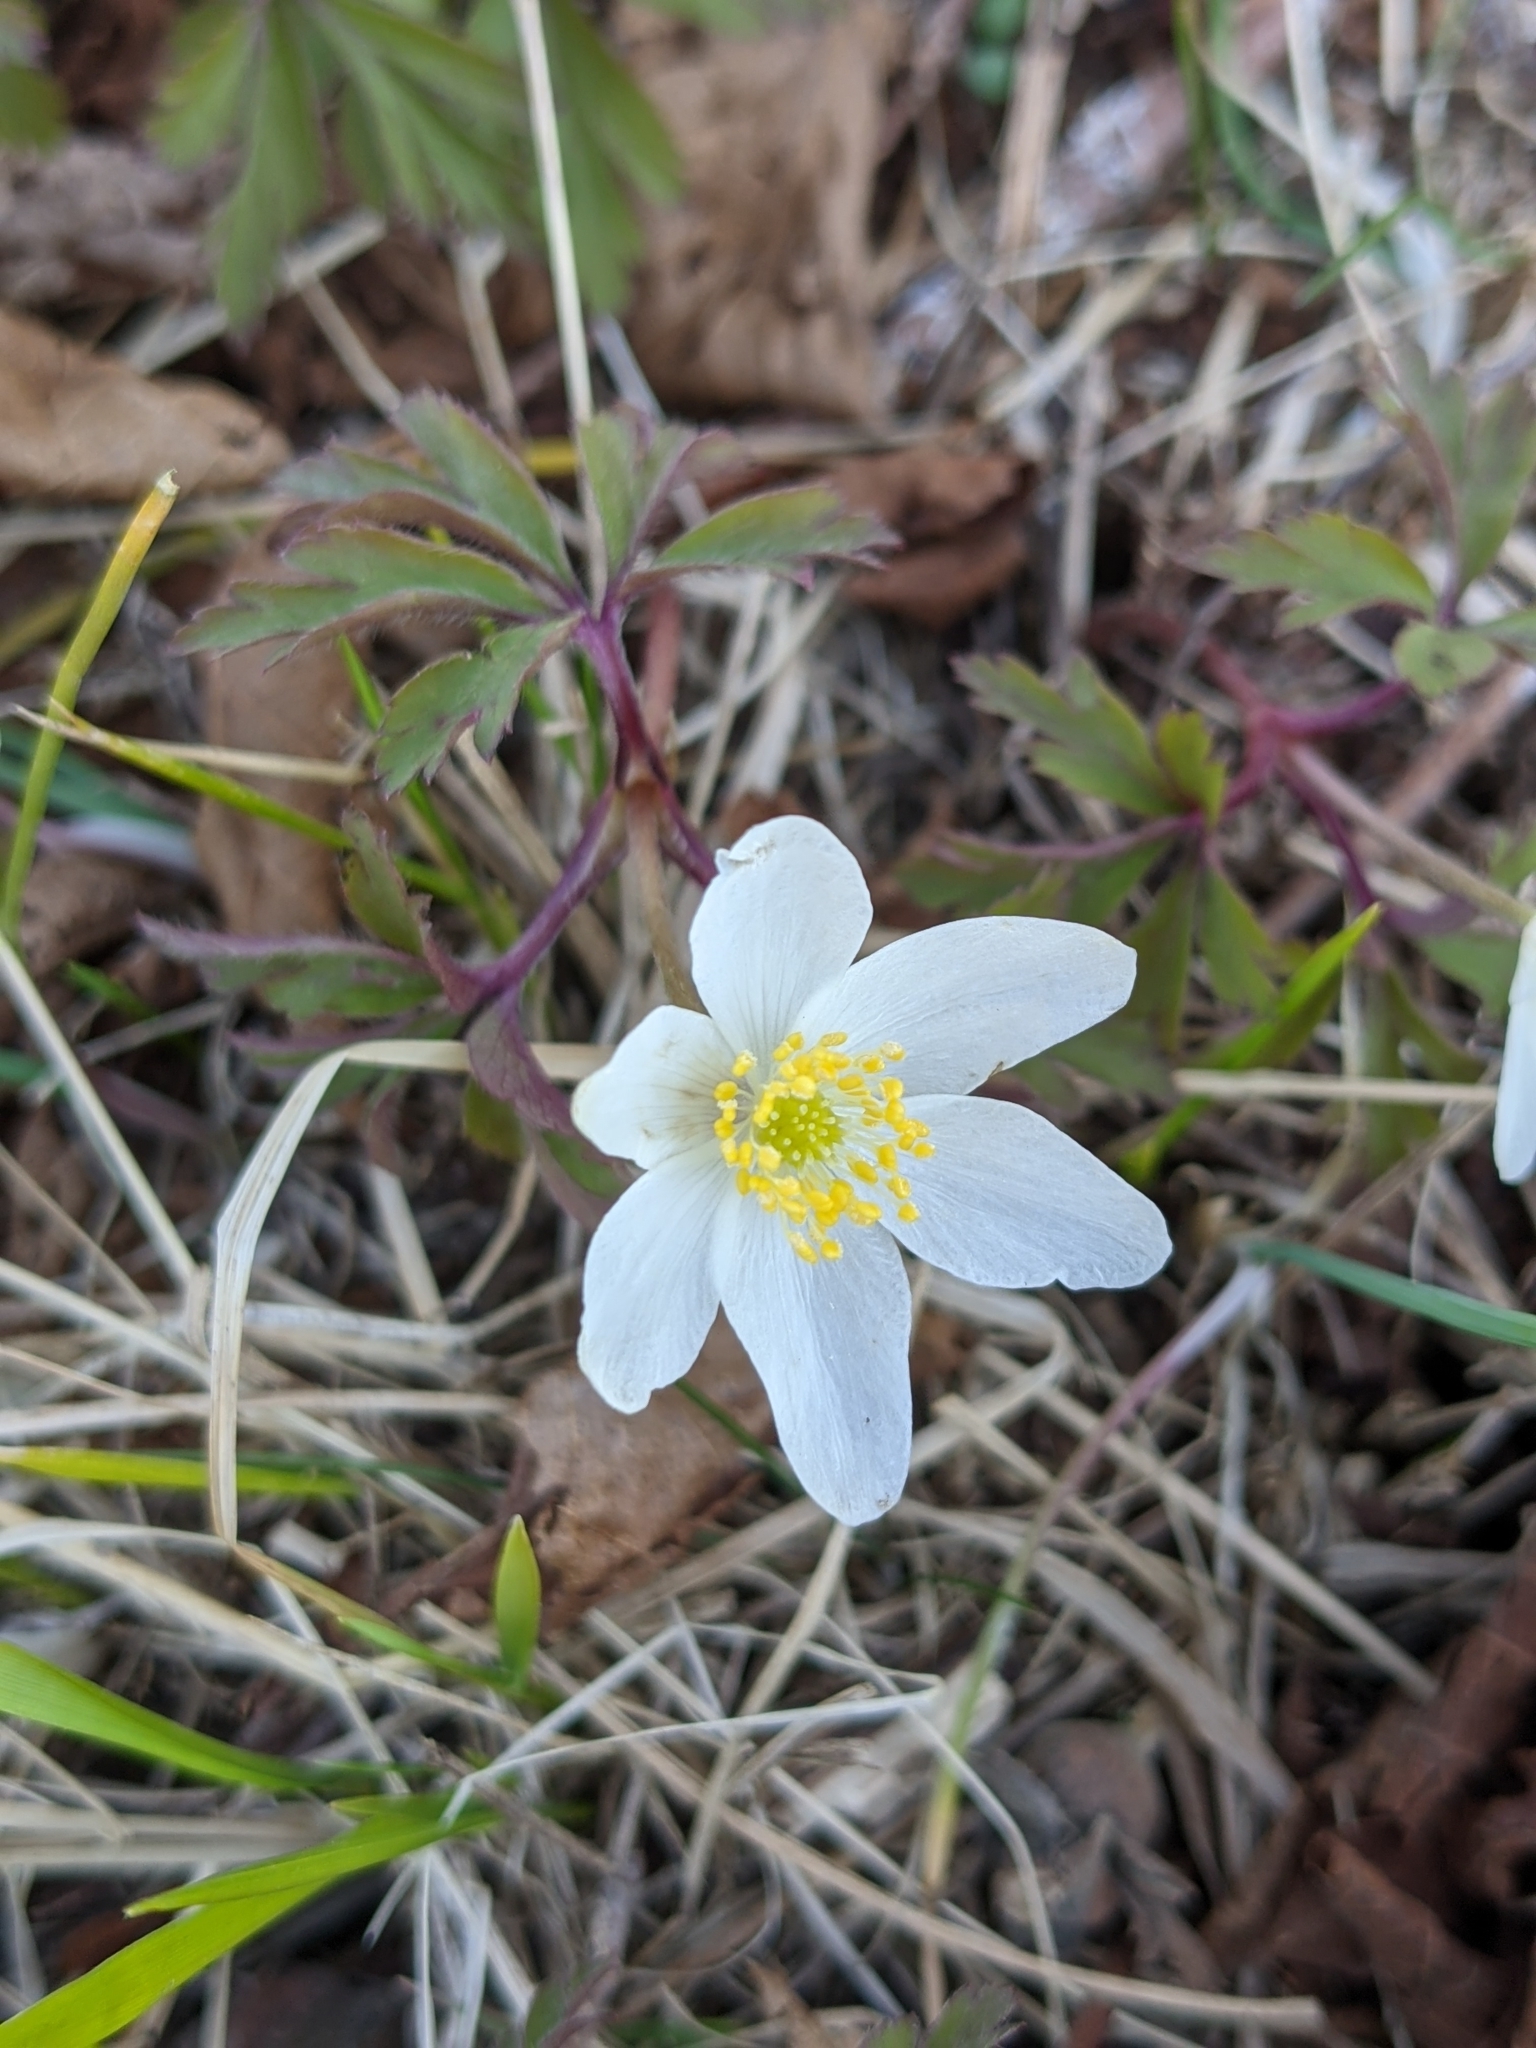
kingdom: Plantae
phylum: Tracheophyta
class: Magnoliopsida
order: Ranunculales
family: Ranunculaceae
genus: Anemone
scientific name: Anemone nemorosa
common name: Wood anemone
